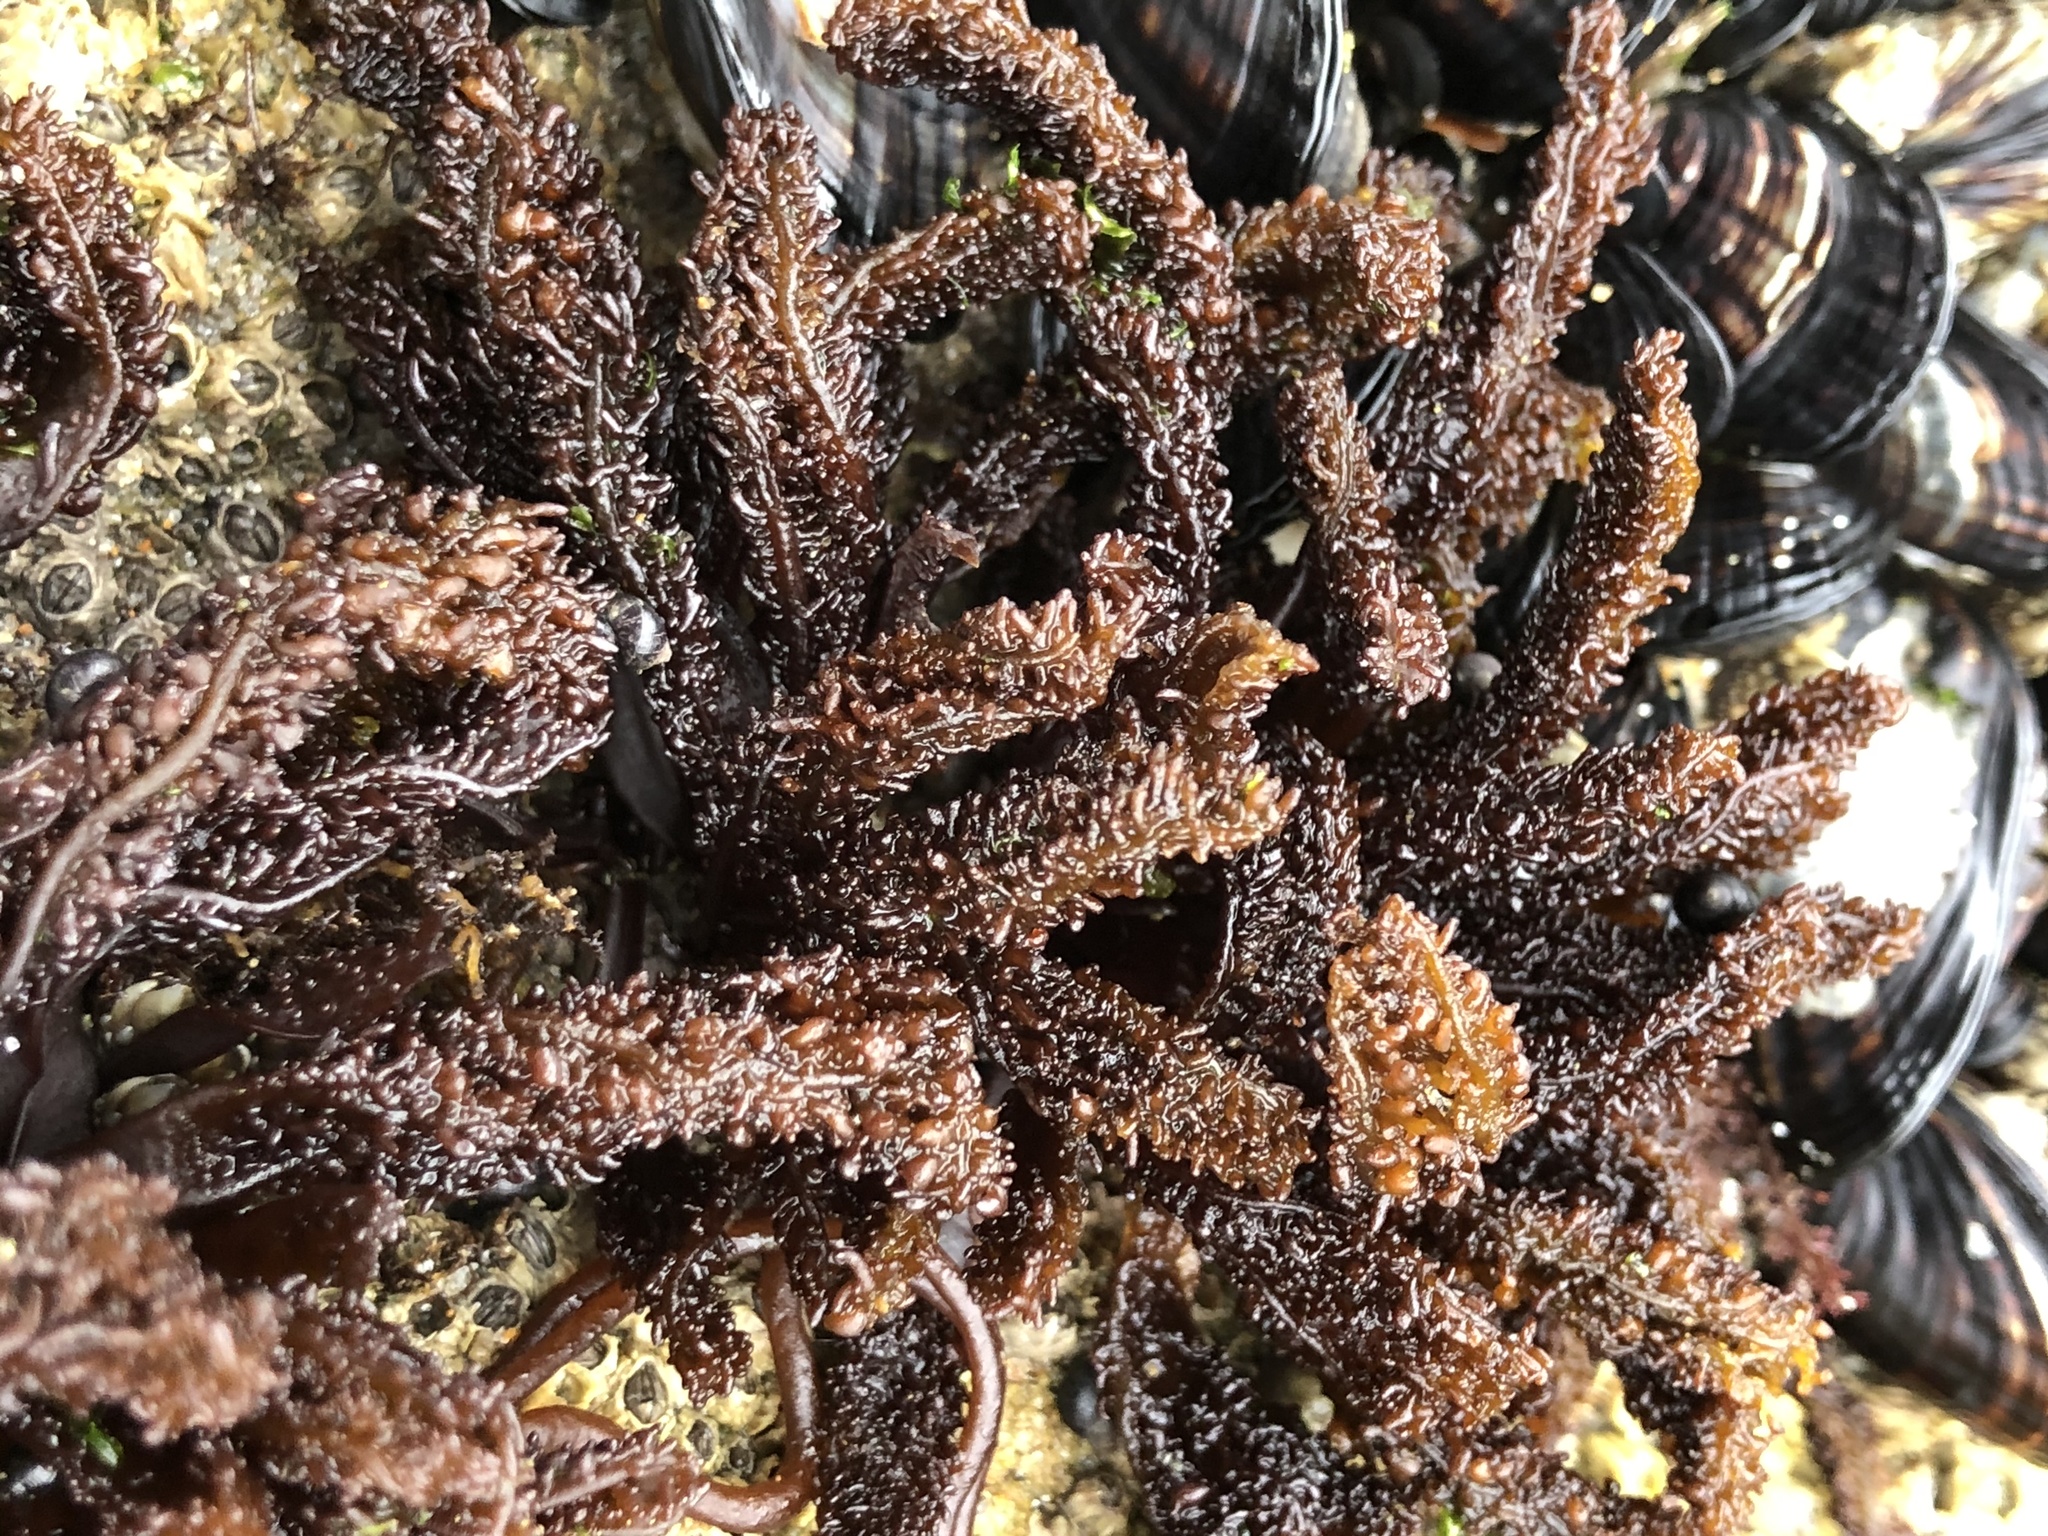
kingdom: Plantae
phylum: Rhodophyta
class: Florideophyceae
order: Gigartinales
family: Phyllophoraceae
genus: Mastocarpus
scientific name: Mastocarpus papillatus
